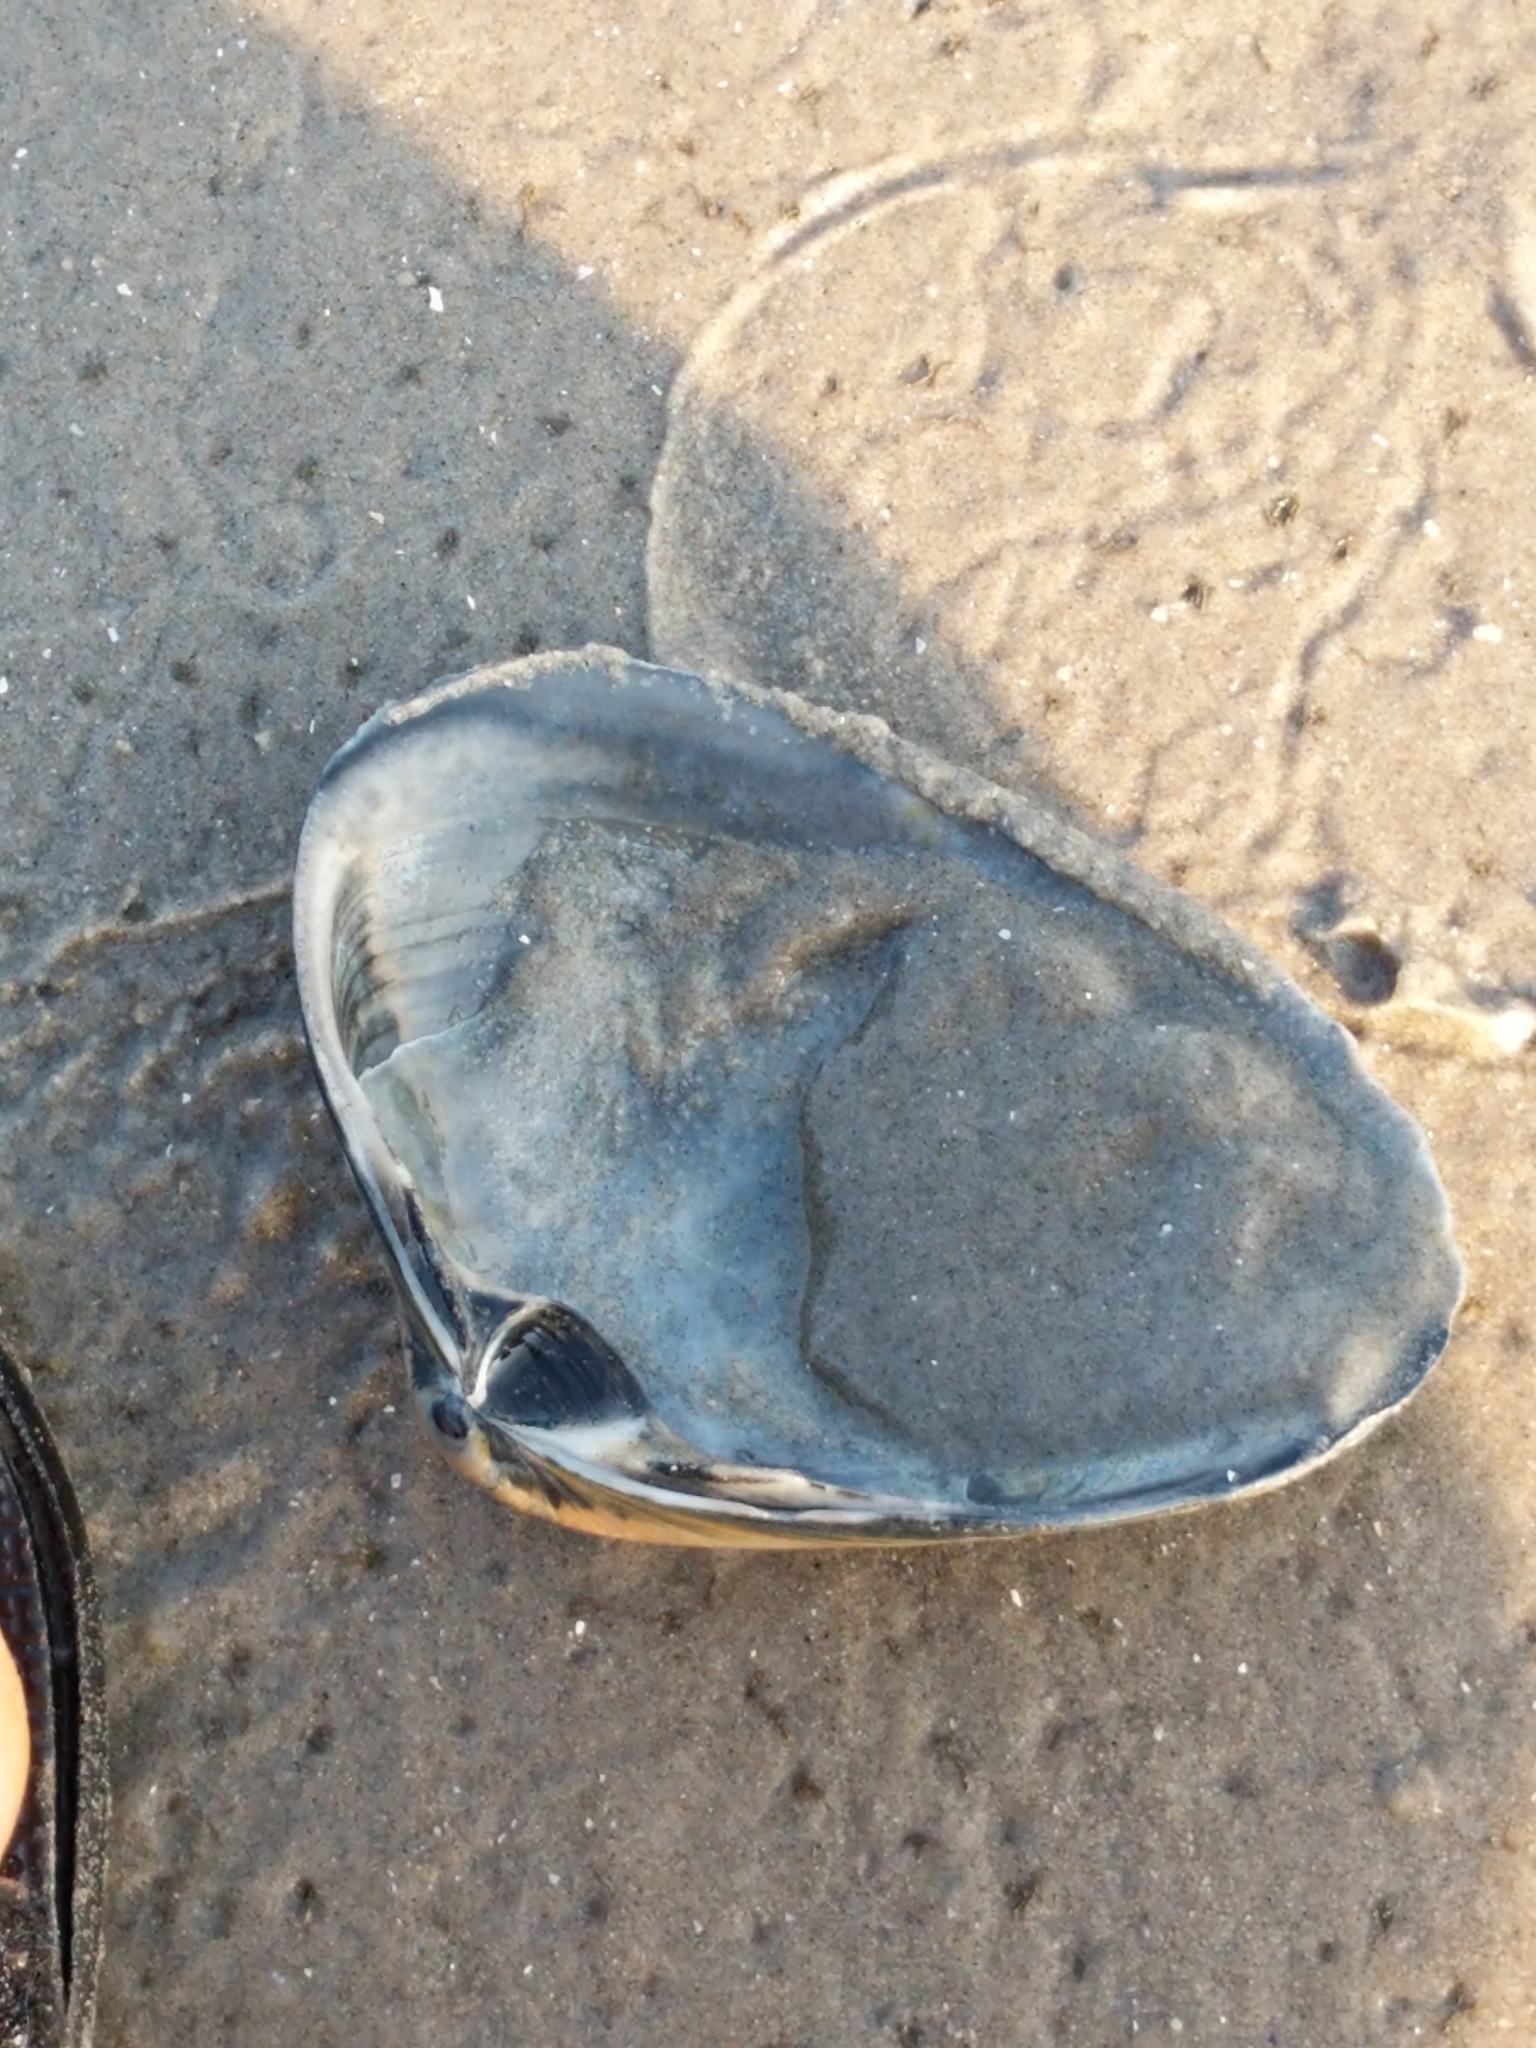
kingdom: Animalia
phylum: Mollusca
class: Bivalvia
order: Venerida
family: Mactridae
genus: Spisula
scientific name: Spisula solidissima
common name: Atlantic surf clam
